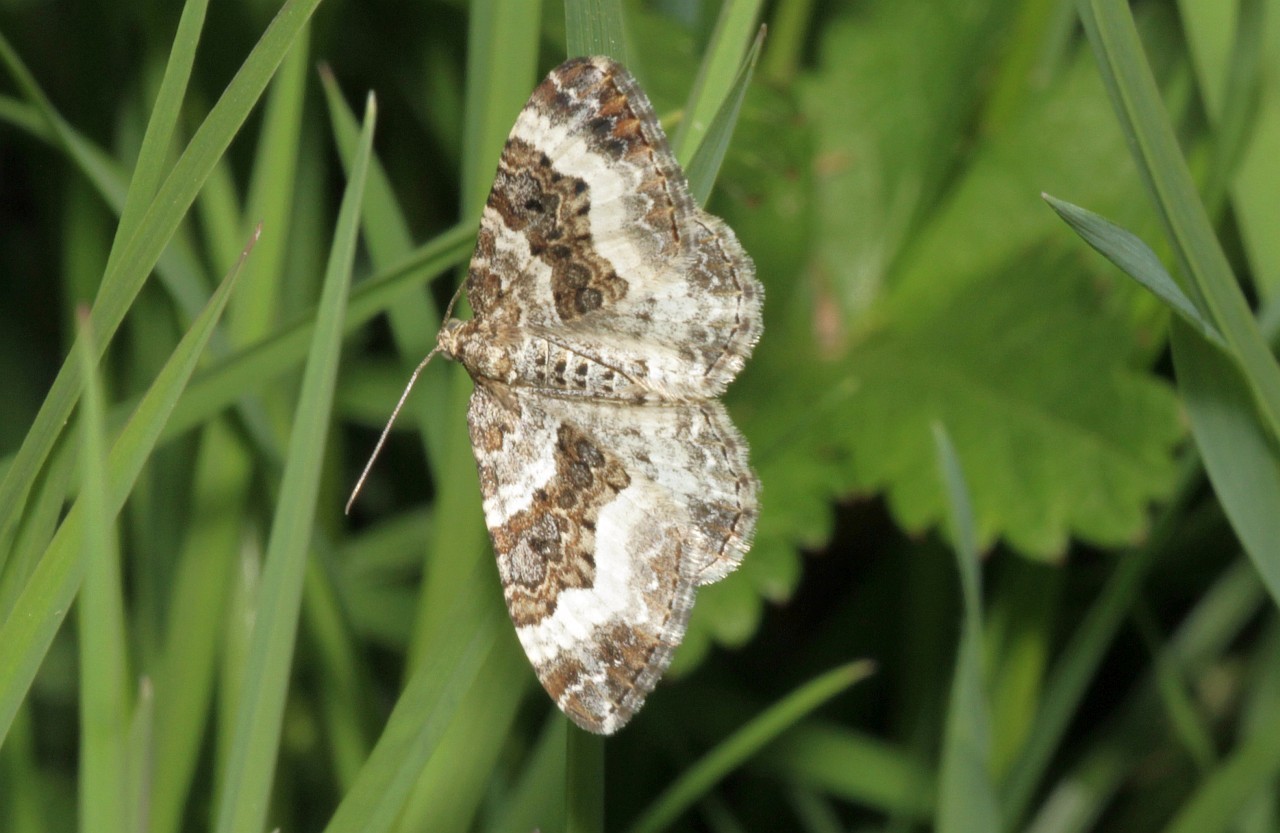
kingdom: Animalia
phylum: Arthropoda
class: Insecta
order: Lepidoptera
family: Geometridae
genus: Epirrhoe
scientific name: Epirrhoe alternata
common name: Common carpet
